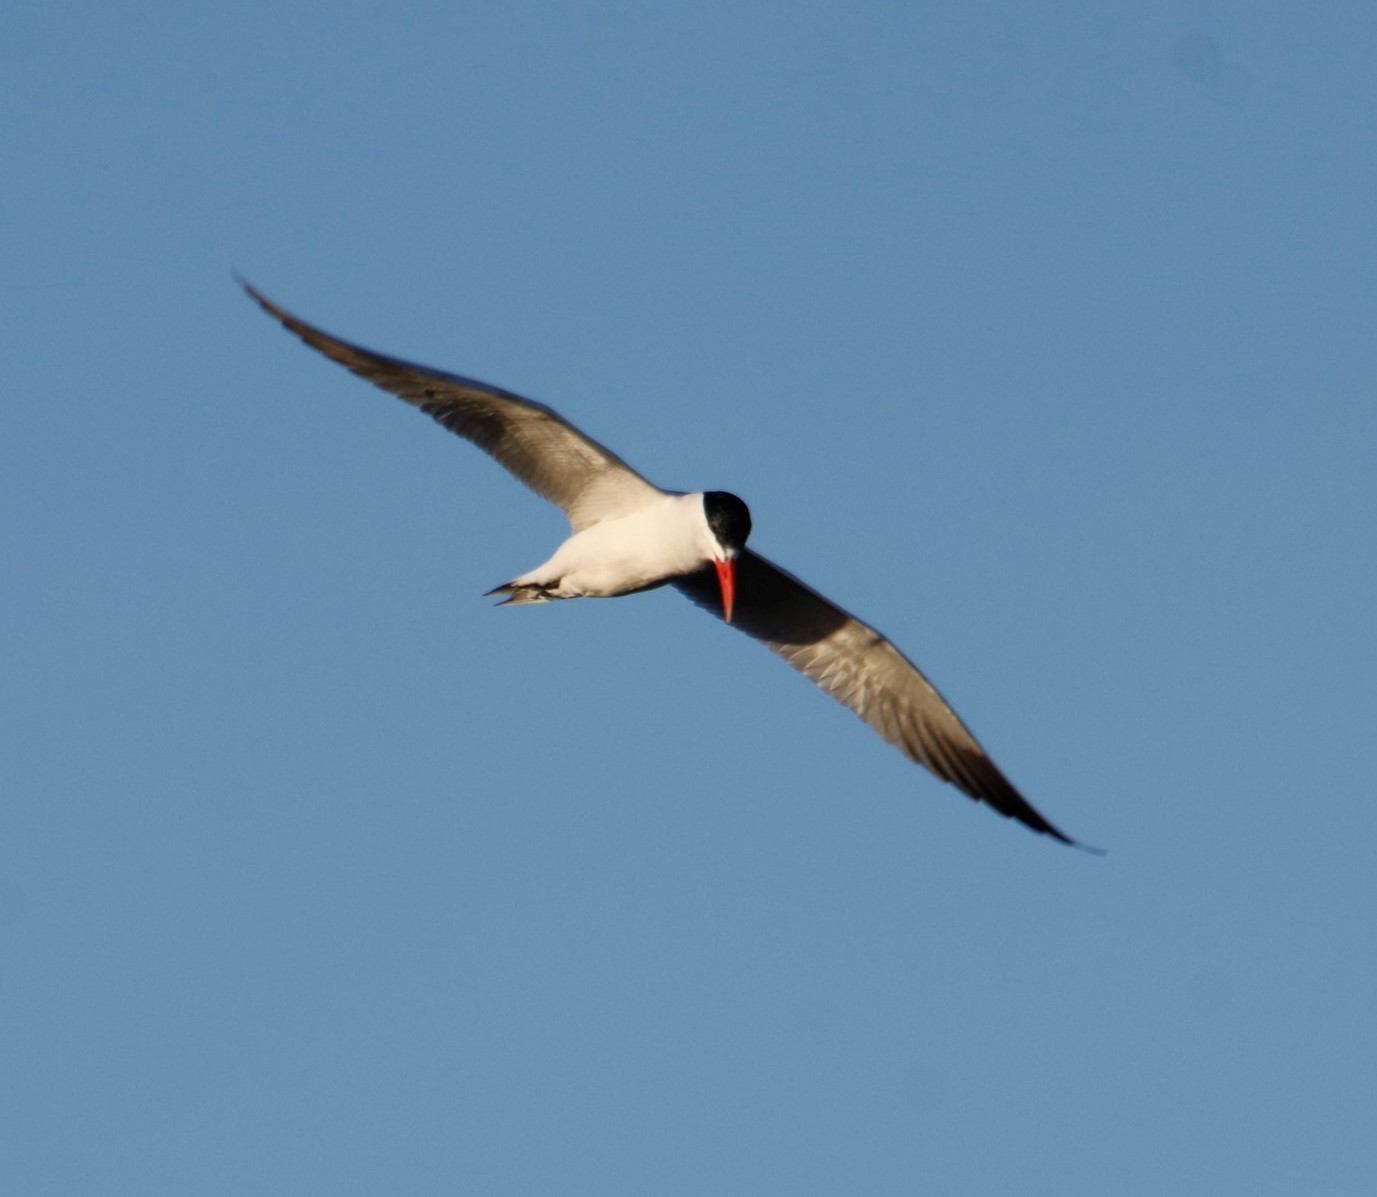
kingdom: Animalia
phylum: Chordata
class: Aves
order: Charadriiformes
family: Laridae
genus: Hydroprogne
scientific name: Hydroprogne caspia
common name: Caspian tern
